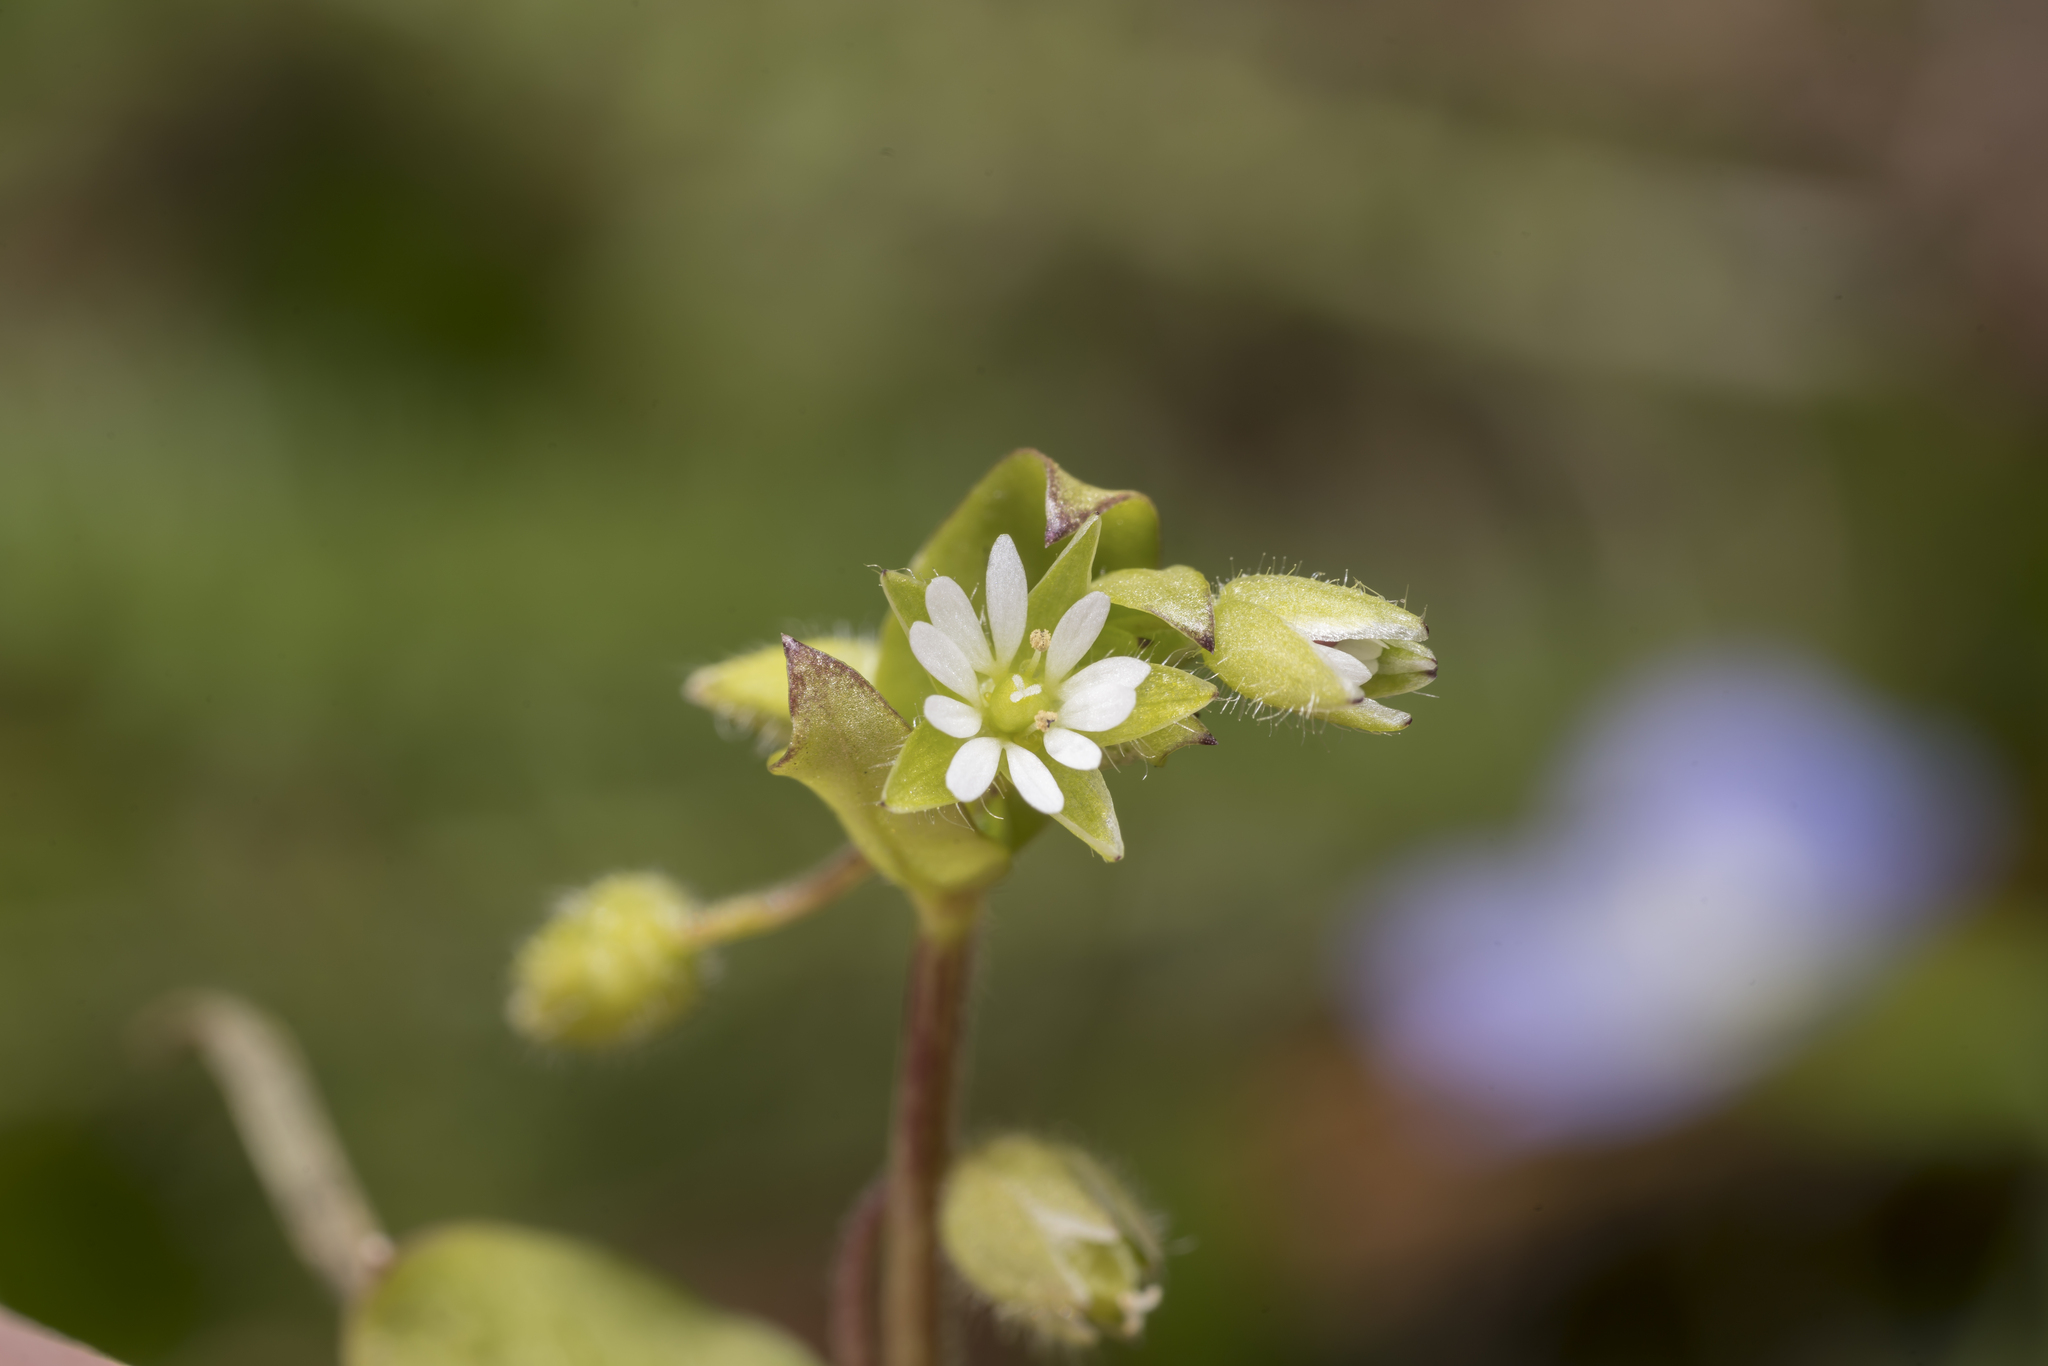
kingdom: Plantae
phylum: Tracheophyta
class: Magnoliopsida
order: Caryophyllales
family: Caryophyllaceae
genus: Stellaria
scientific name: Stellaria media
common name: Common chickweed
